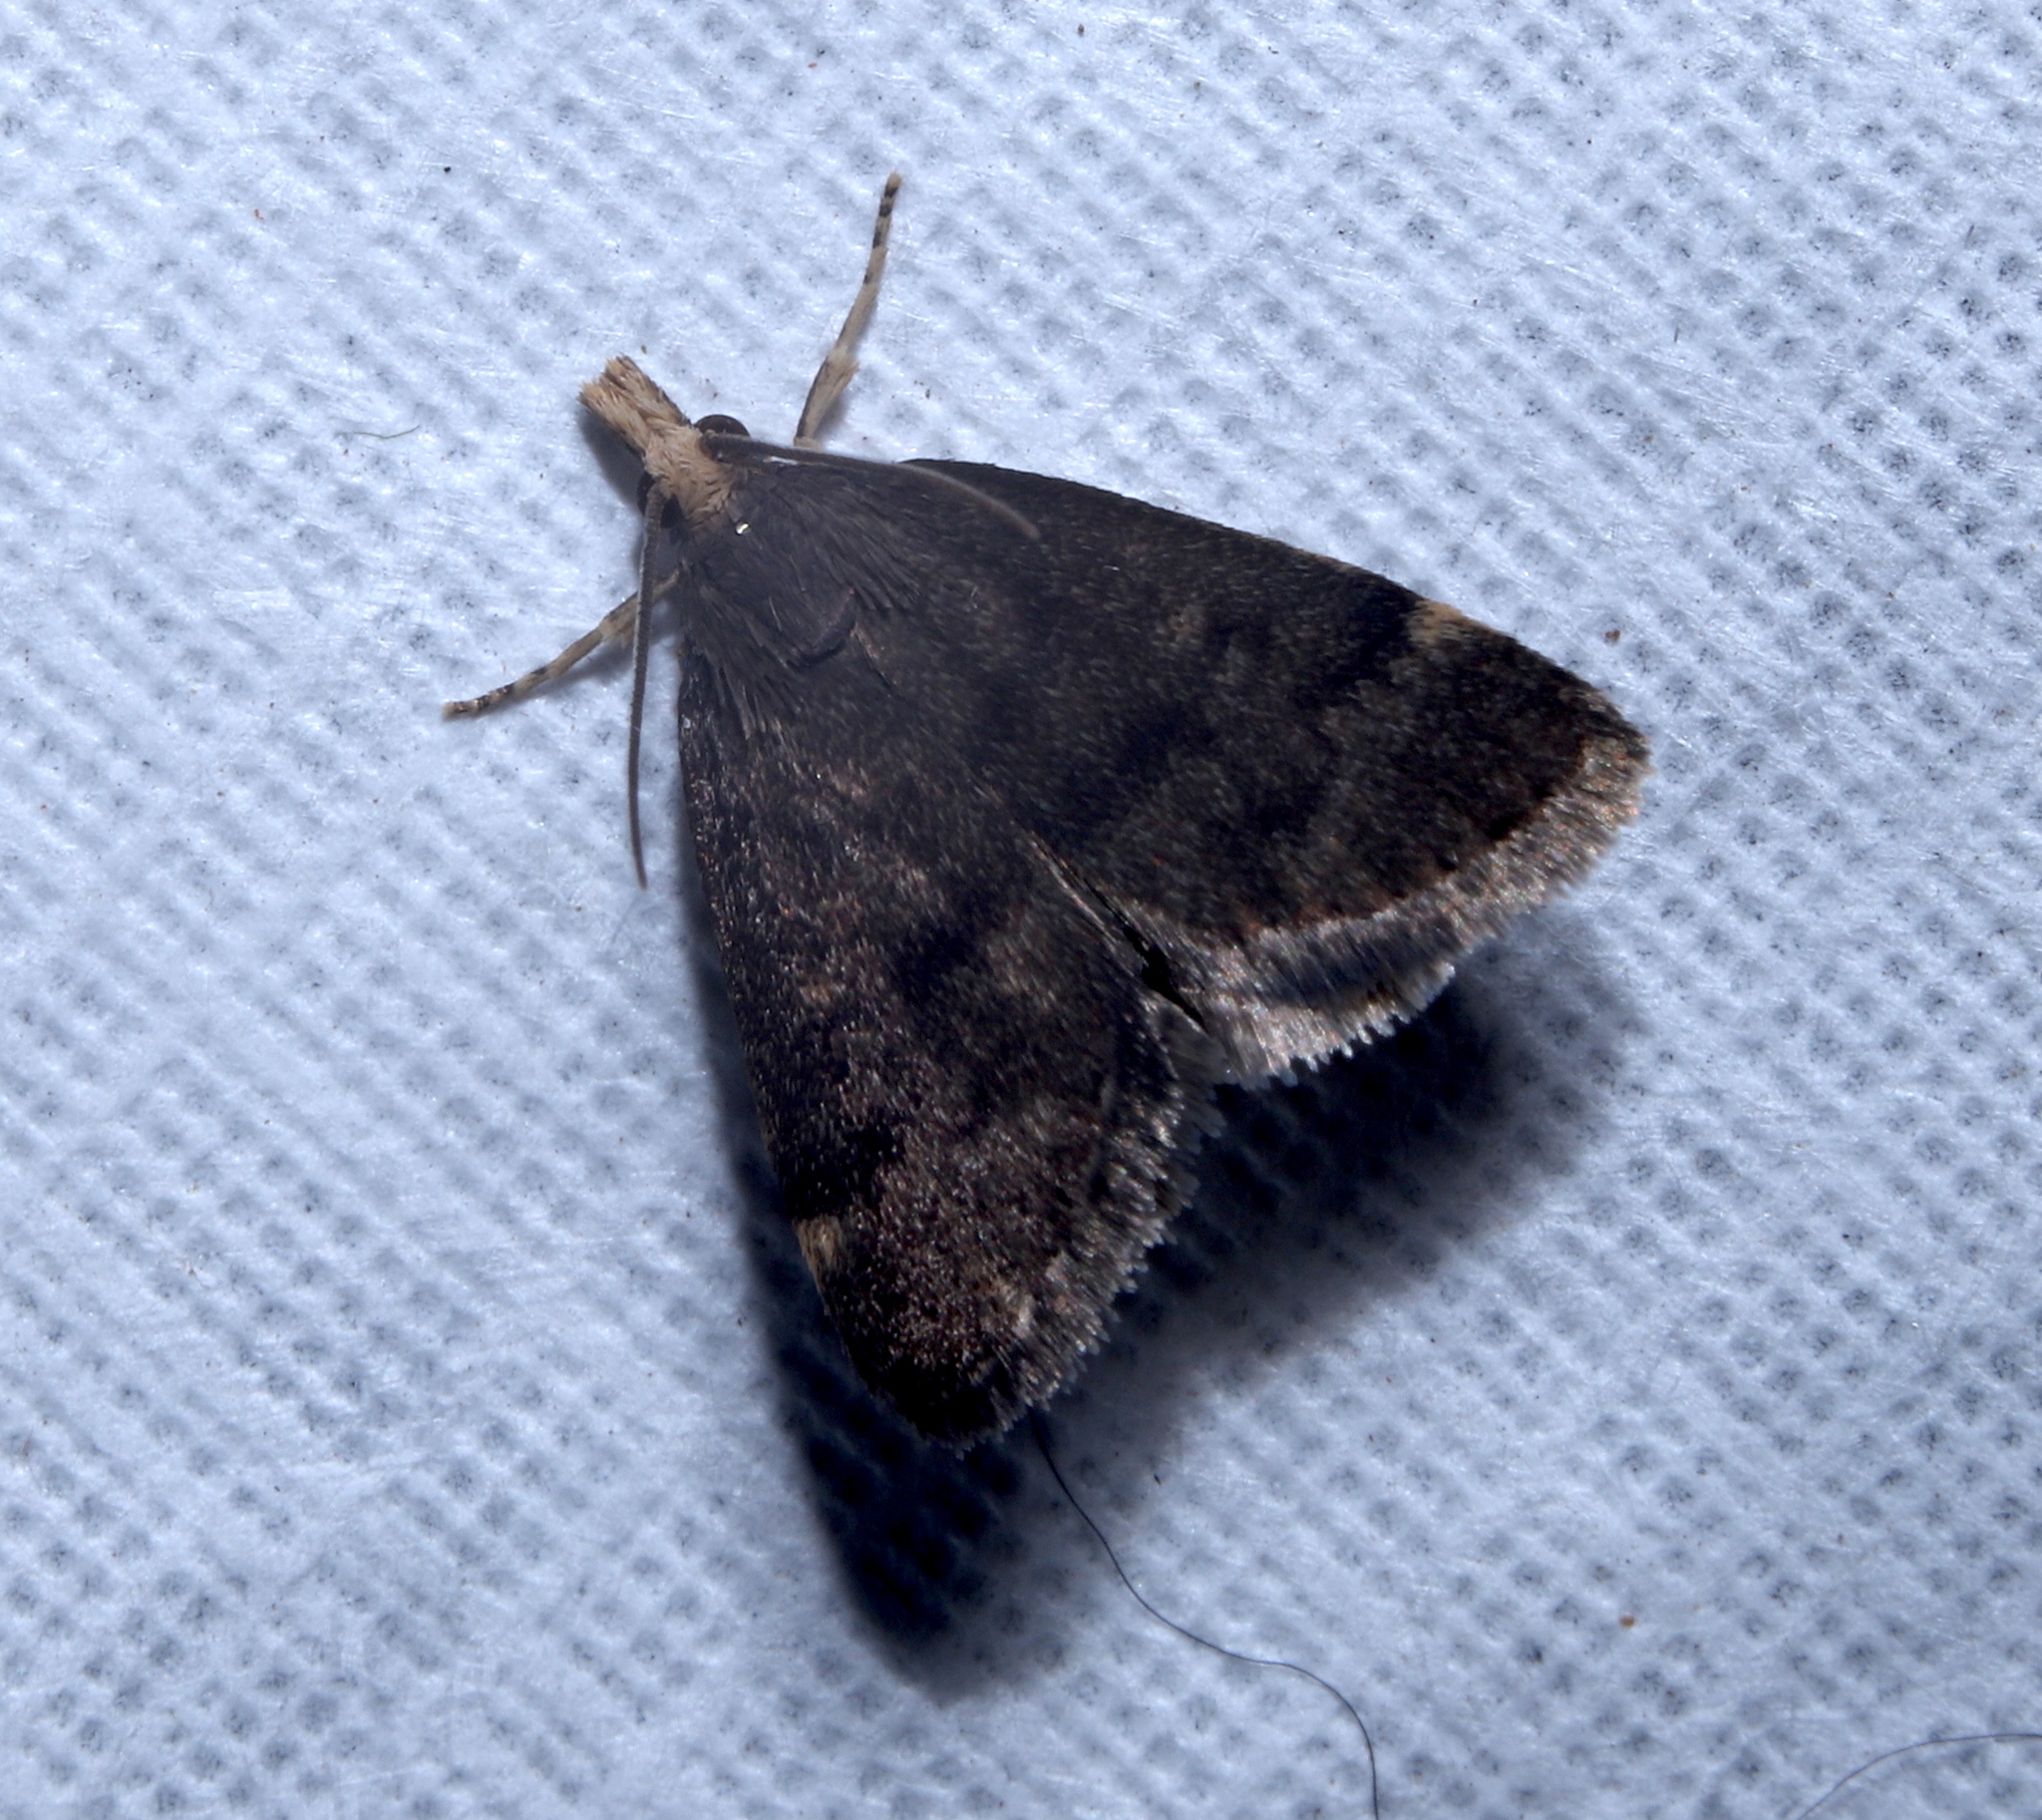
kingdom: Animalia
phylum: Arthropoda
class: Insecta
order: Lepidoptera
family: Crambidae
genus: Pyrausta
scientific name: Pyrausta merrickalis
